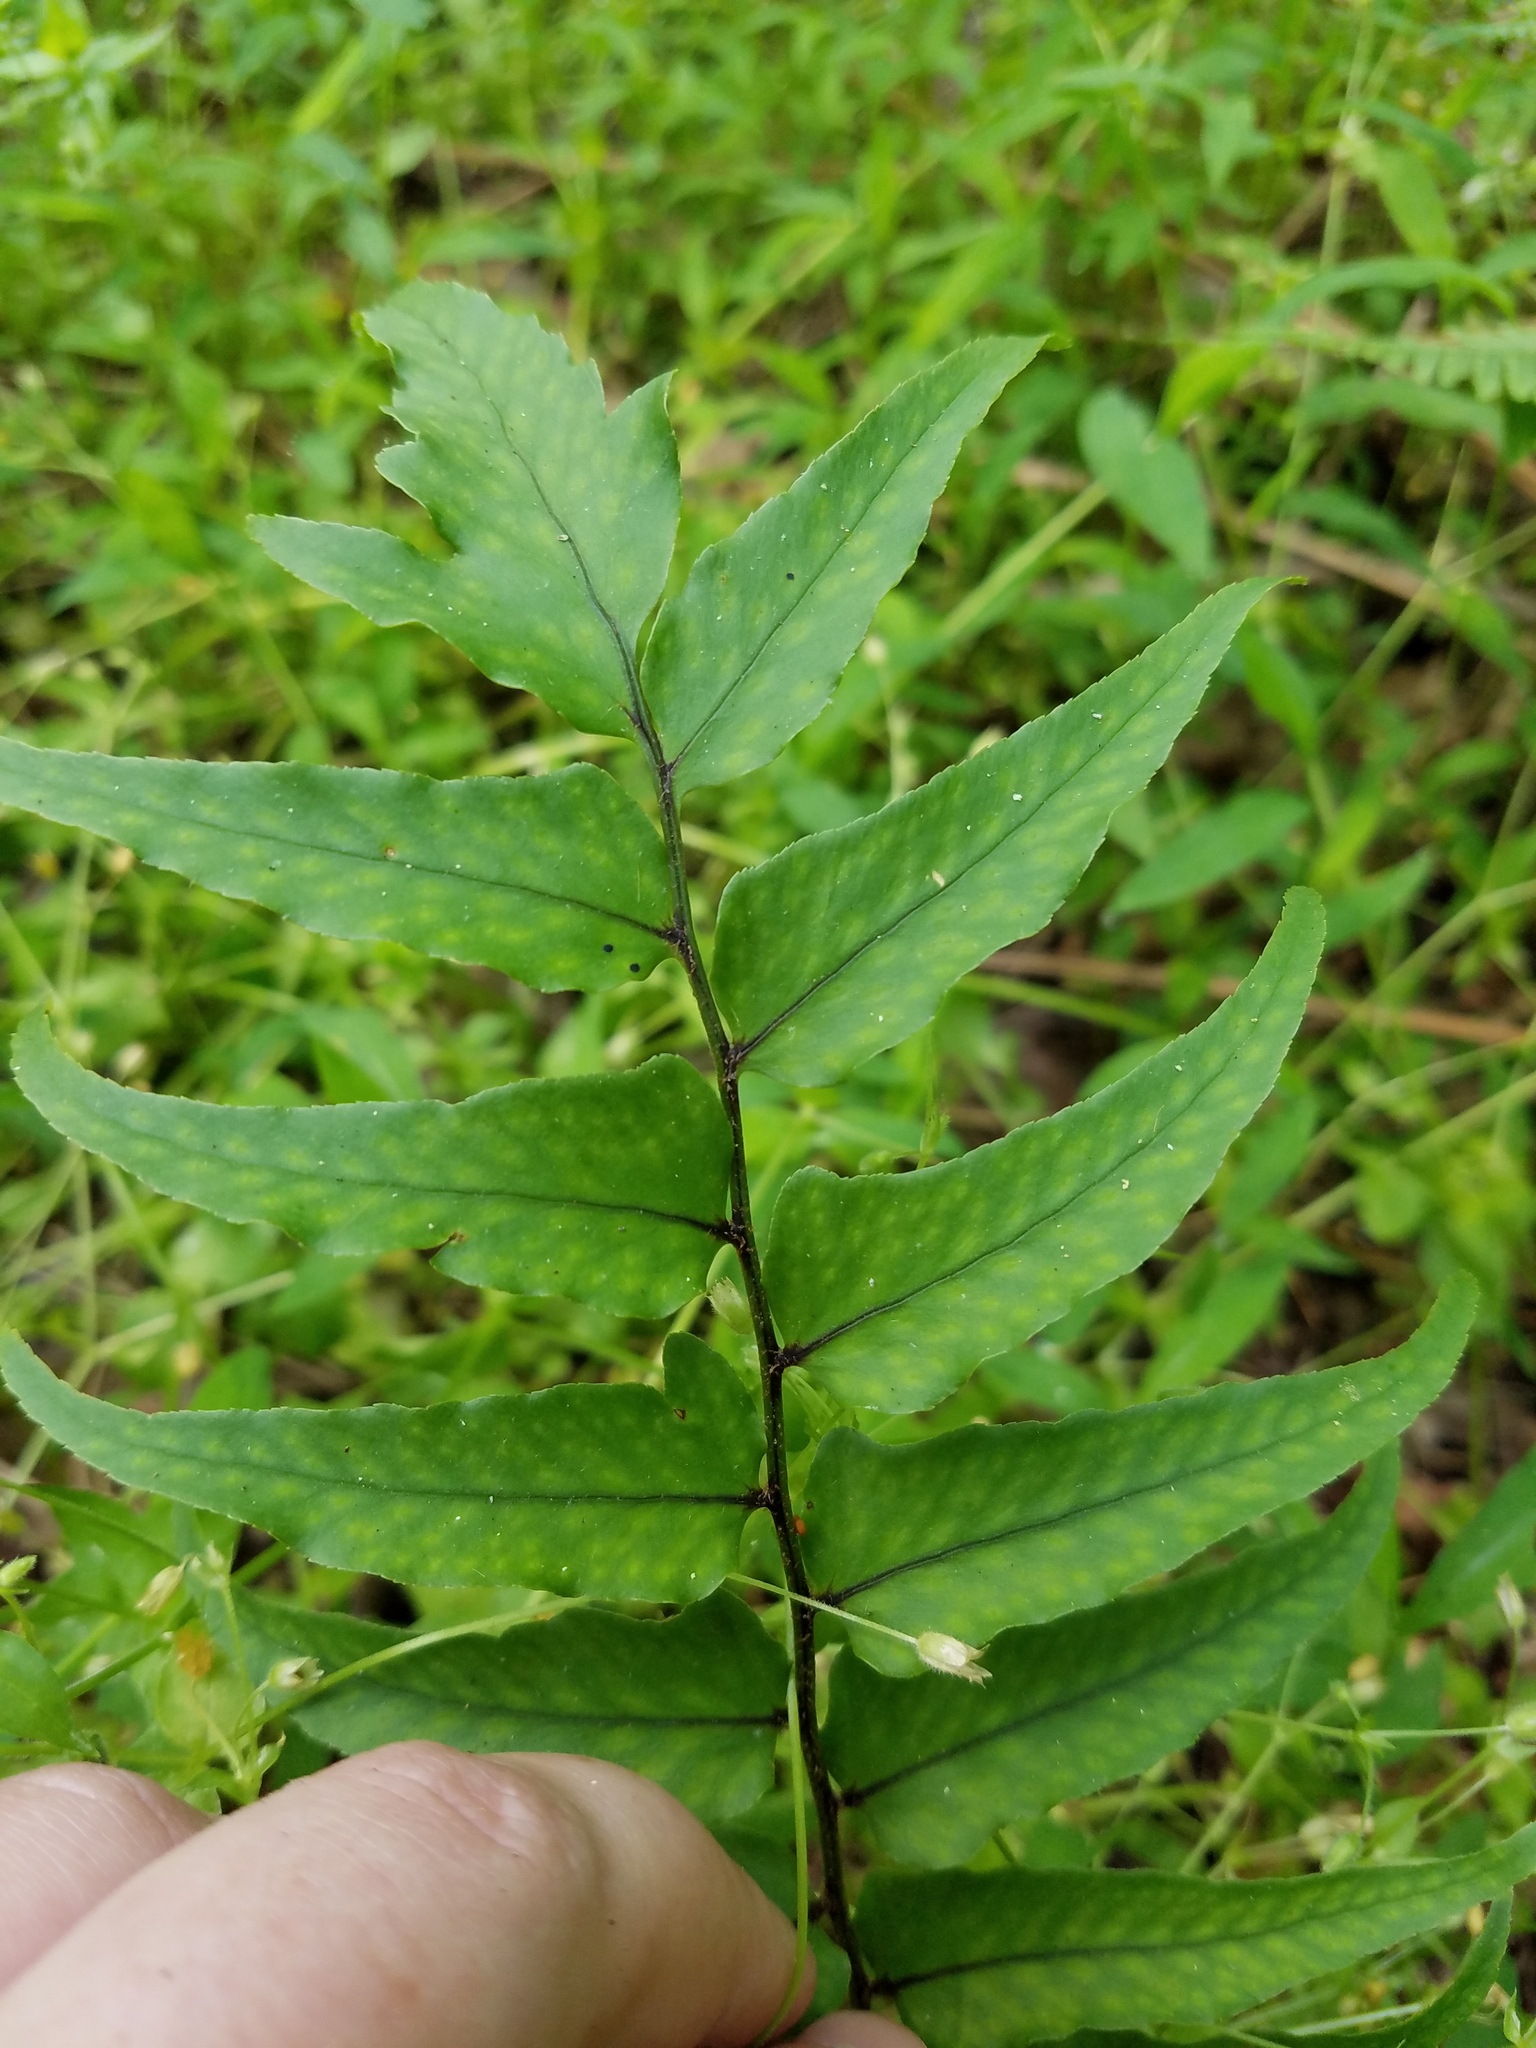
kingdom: Plantae
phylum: Tracheophyta
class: Polypodiopsida
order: Polypodiales
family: Dryopteridaceae
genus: Cyrtomium
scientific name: Cyrtomium fortunei
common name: Asian netvein hollyfern
